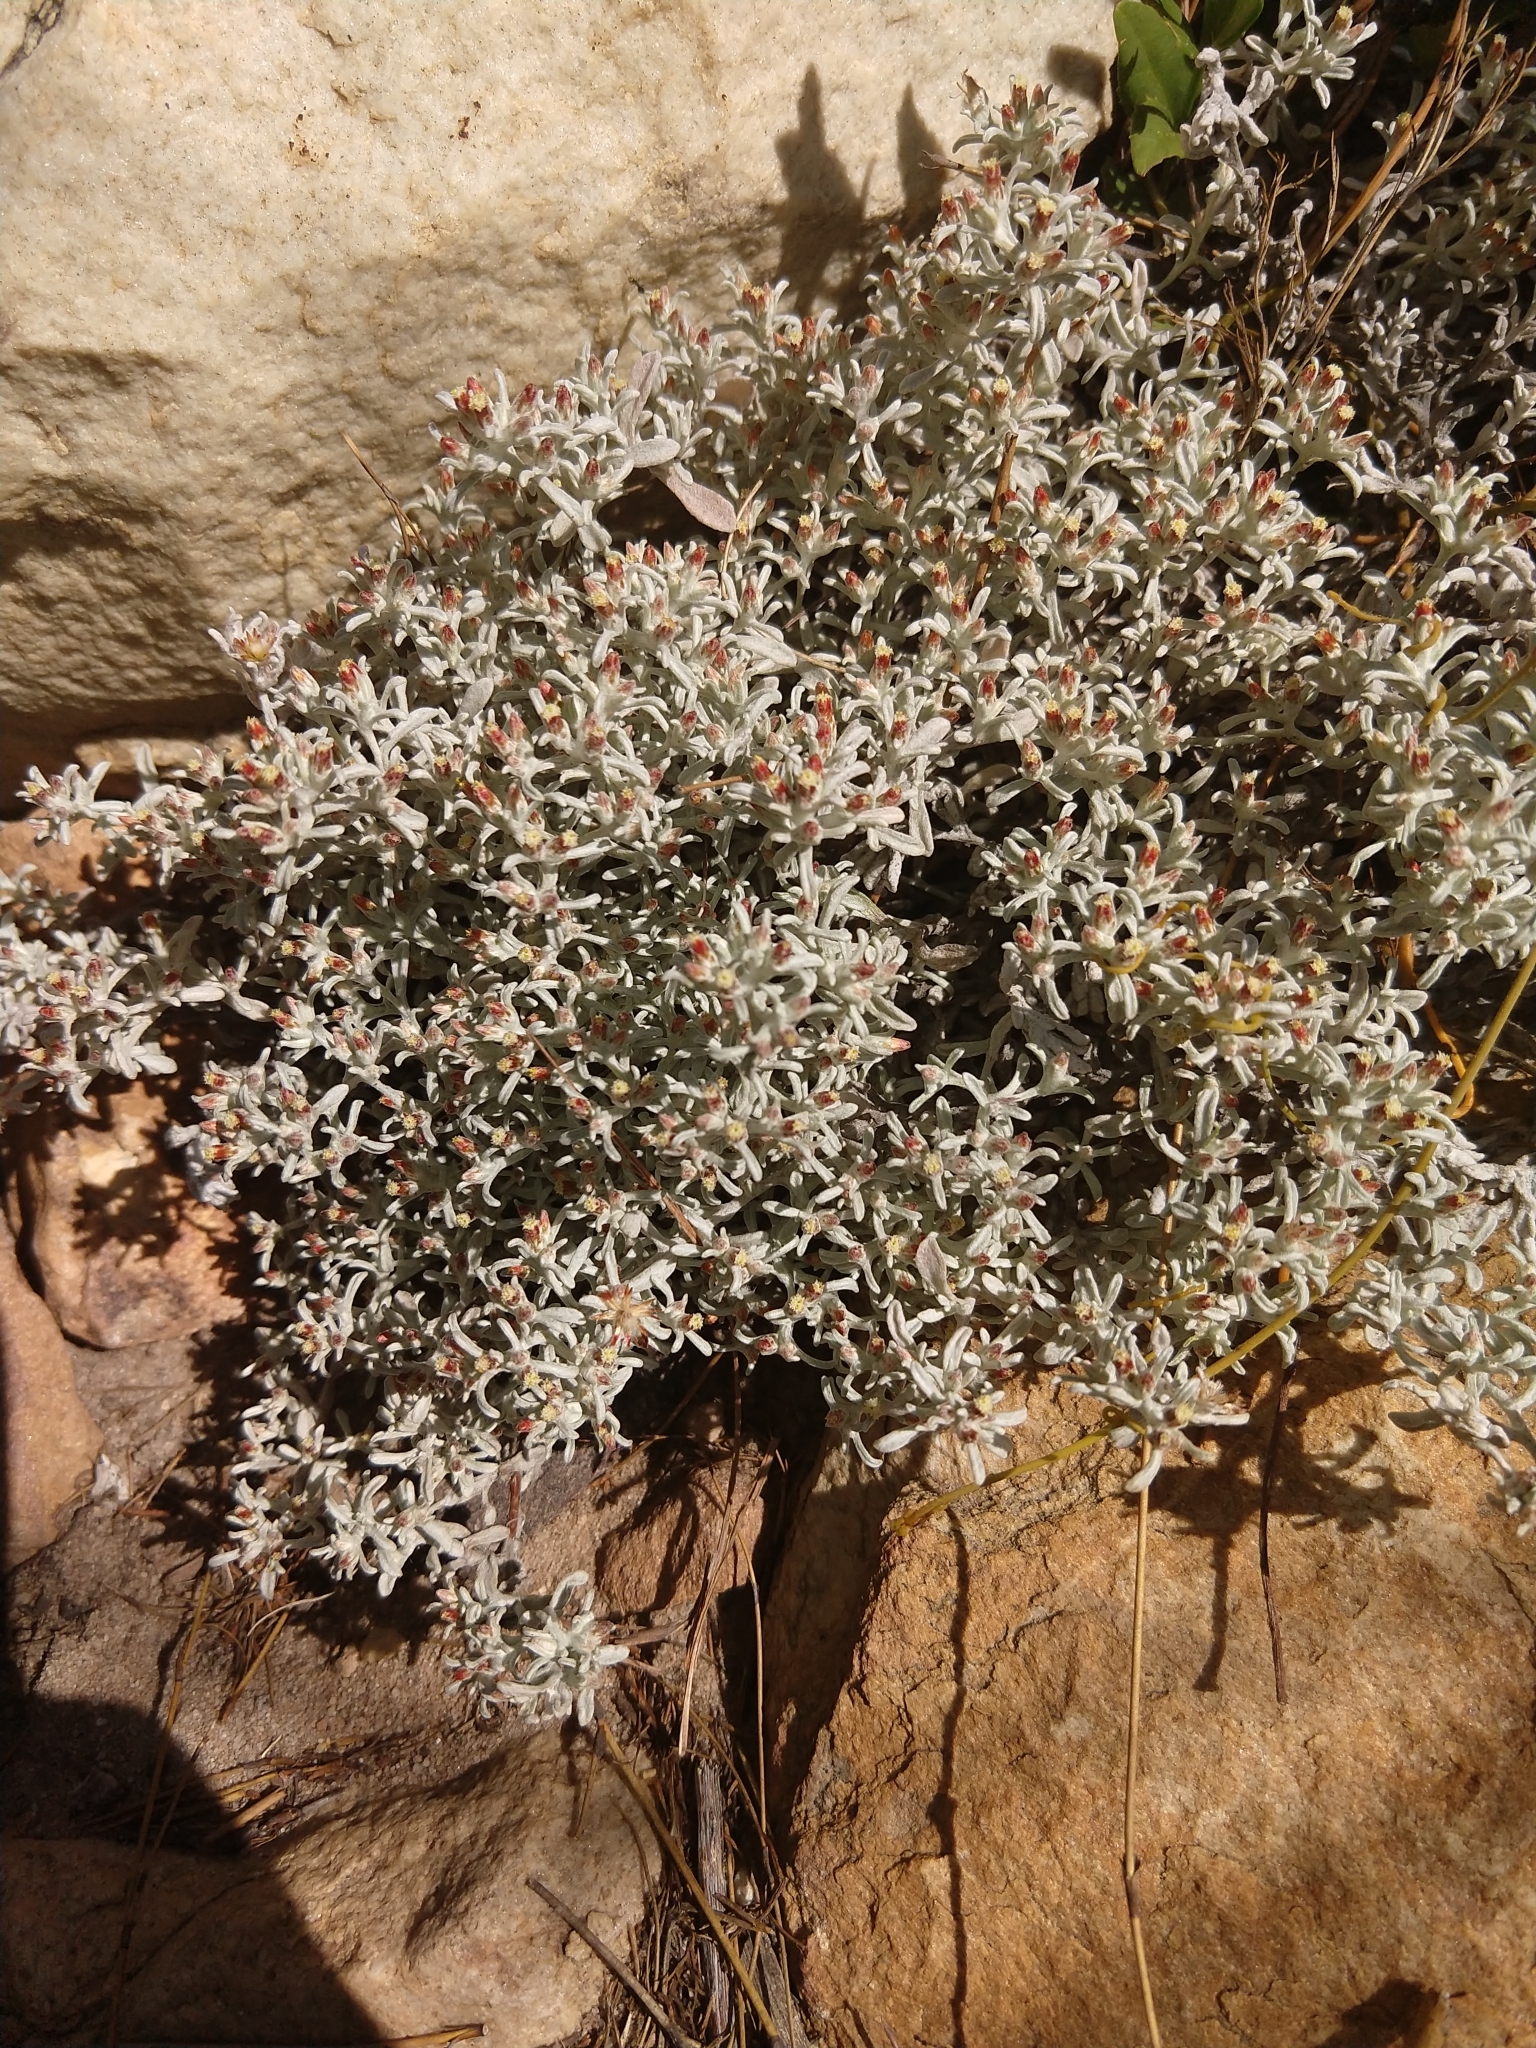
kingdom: Plantae
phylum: Tracheophyta
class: Magnoliopsida
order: Asterales
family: Asteraceae
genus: Helichrysum
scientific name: Helichrysum tinctum
